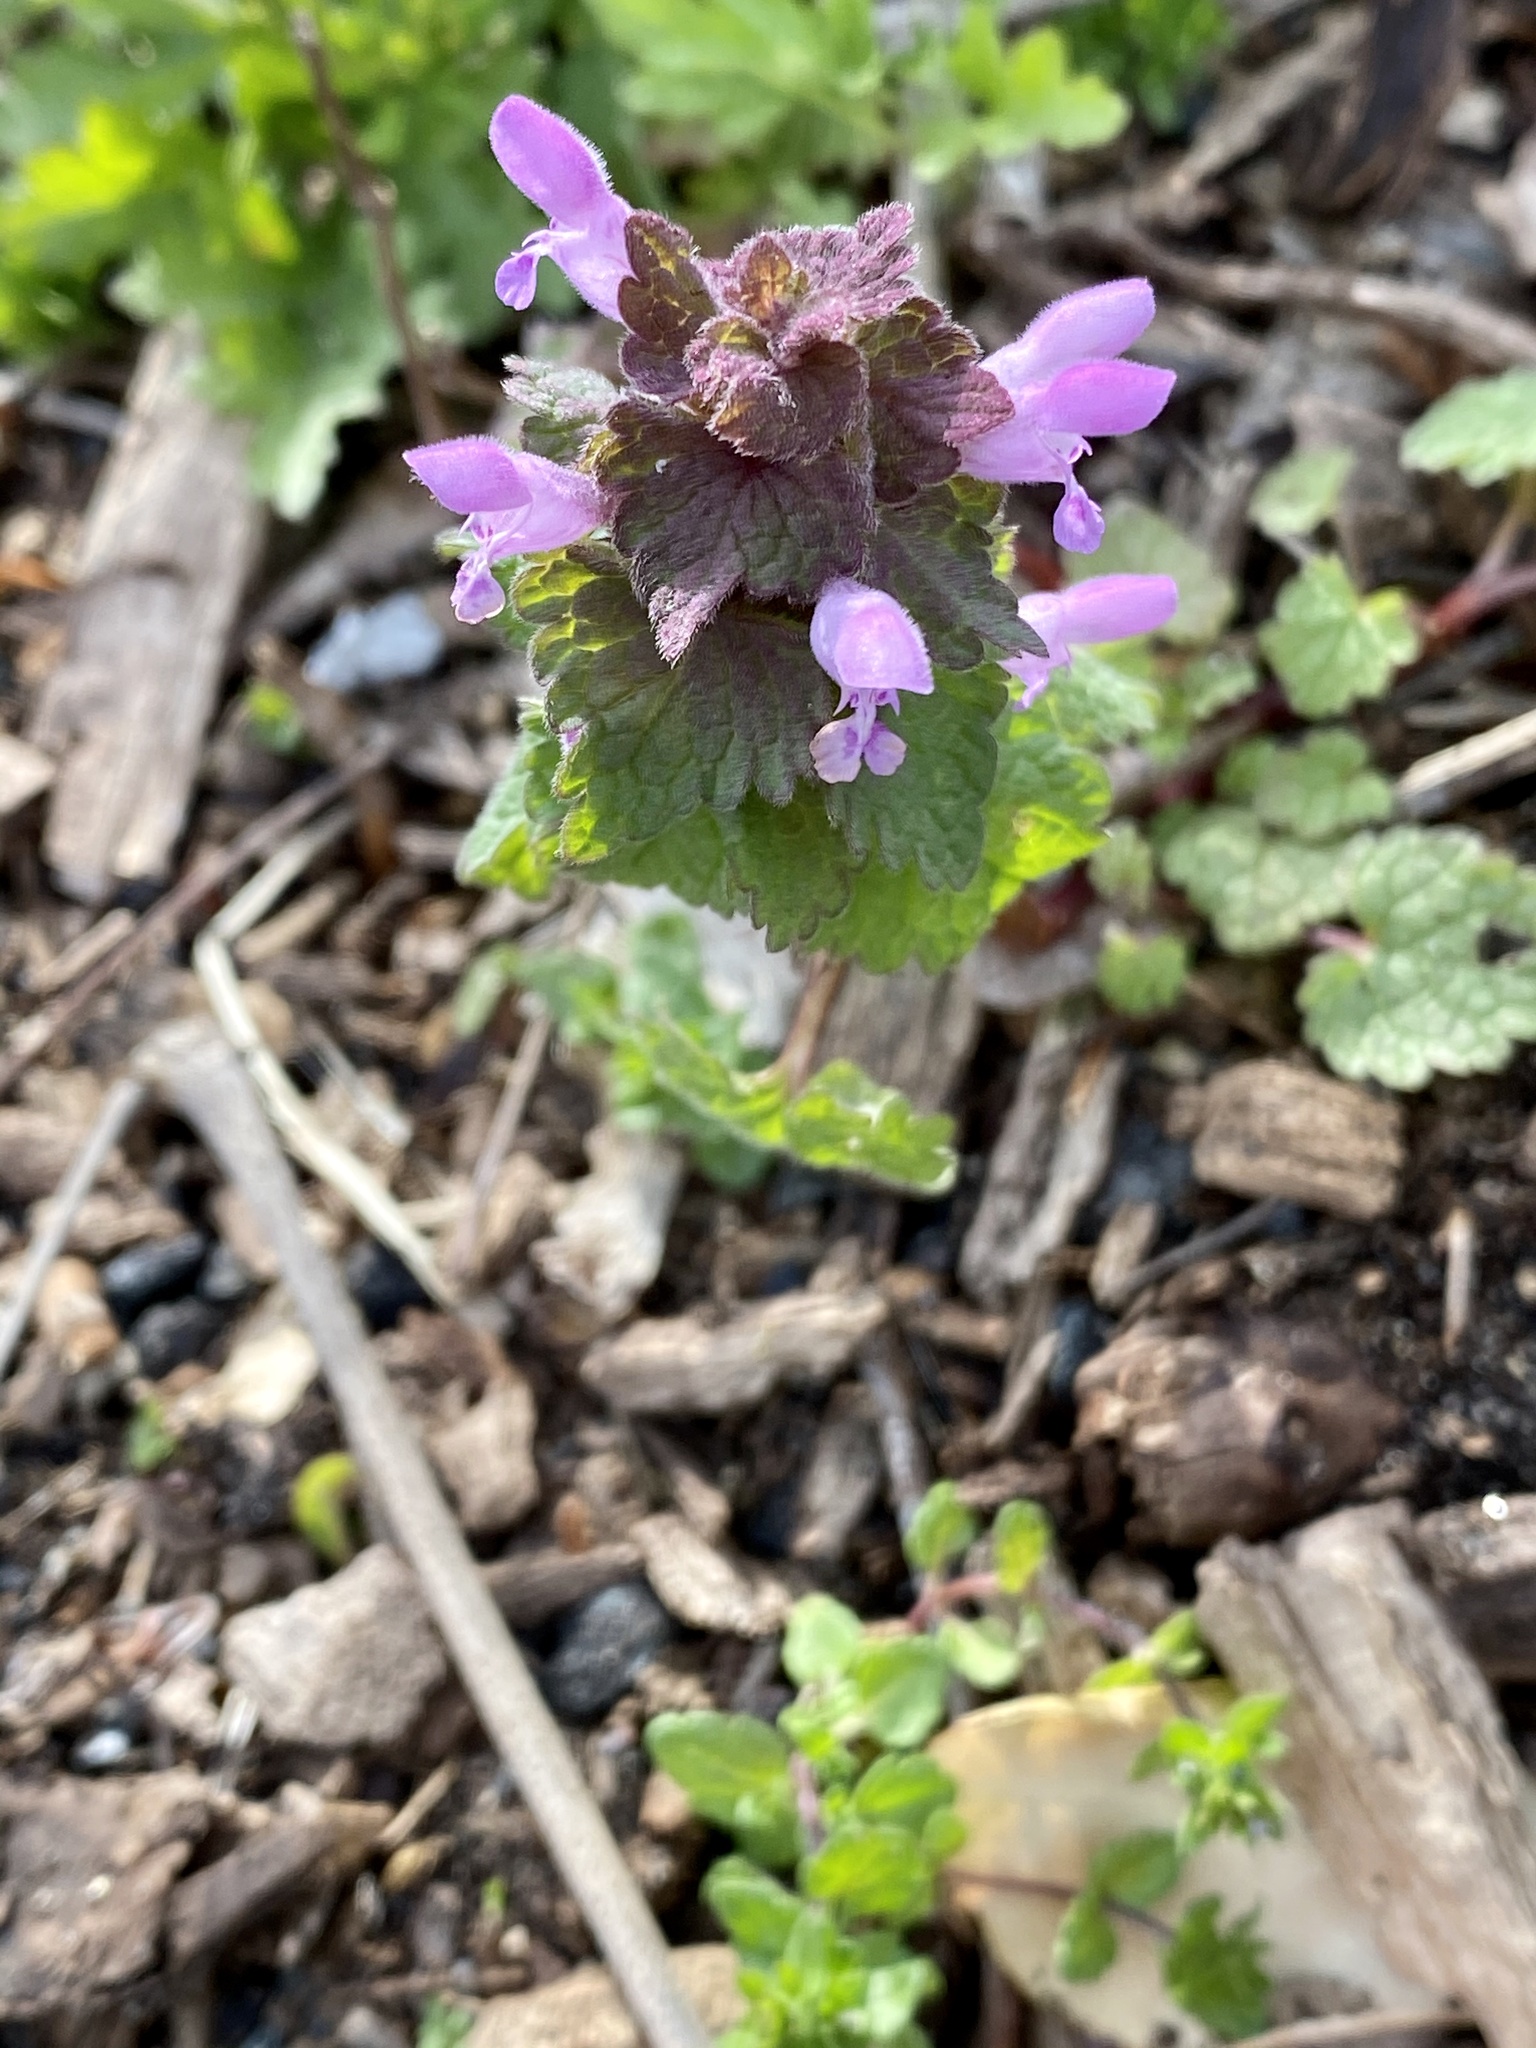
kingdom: Plantae
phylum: Tracheophyta
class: Magnoliopsida
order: Lamiales
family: Lamiaceae
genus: Lamium
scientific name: Lamium purpureum
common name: Red dead-nettle
